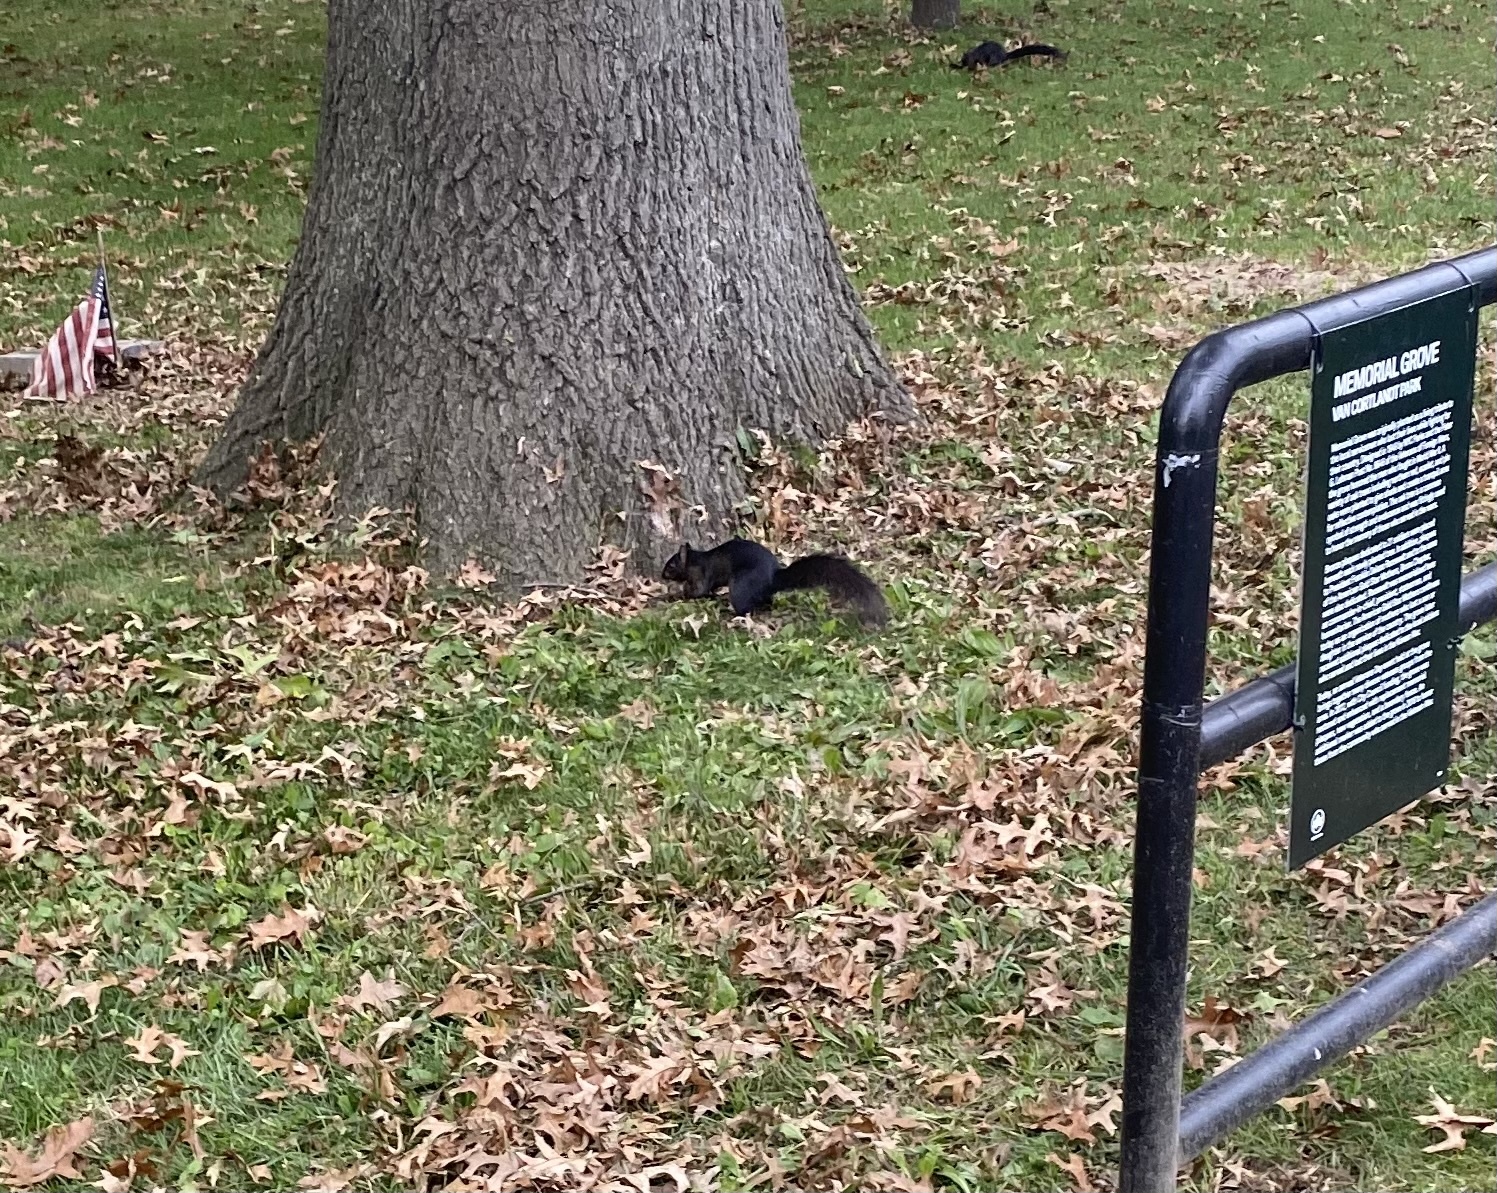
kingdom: Animalia
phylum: Chordata
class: Mammalia
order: Rodentia
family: Sciuridae
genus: Sciurus
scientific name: Sciurus carolinensis
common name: Eastern gray squirrel
